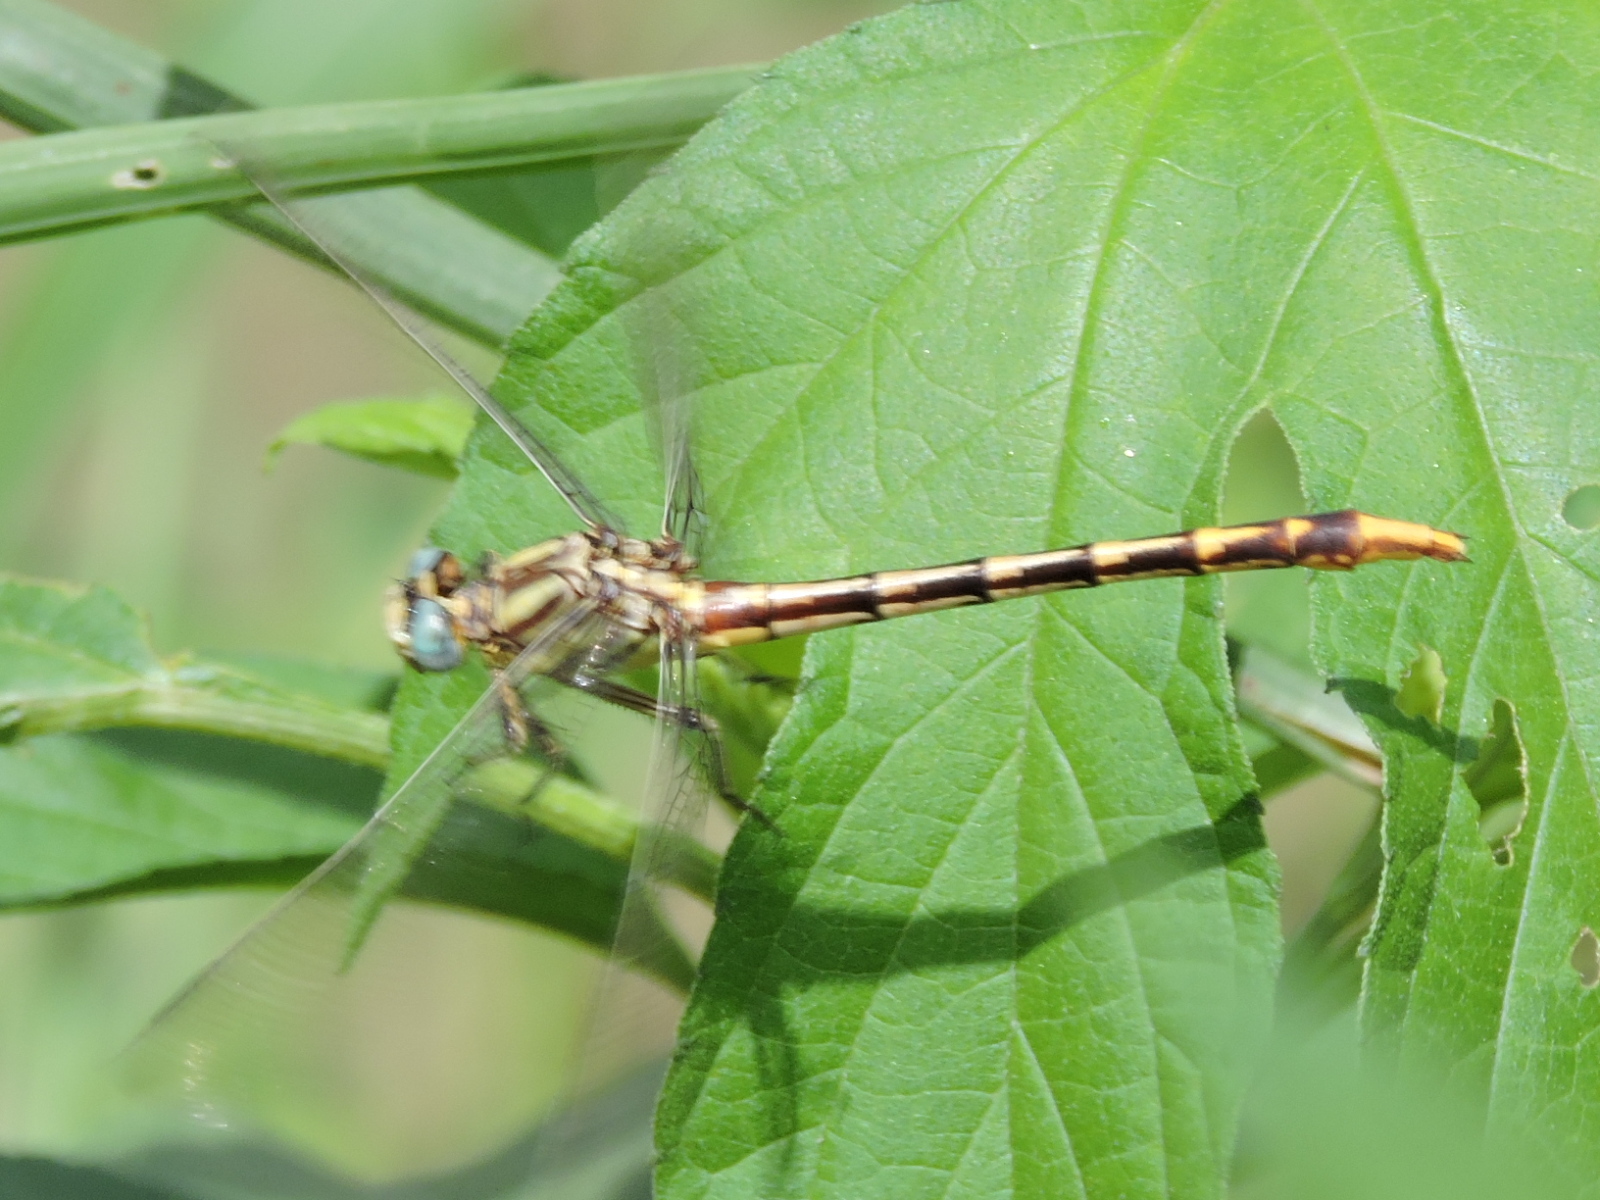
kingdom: Animalia
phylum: Arthropoda
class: Insecta
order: Odonata
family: Gomphidae
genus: Phanogomphus
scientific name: Phanogomphus militaris
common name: Sulphur-tipped clubtail
